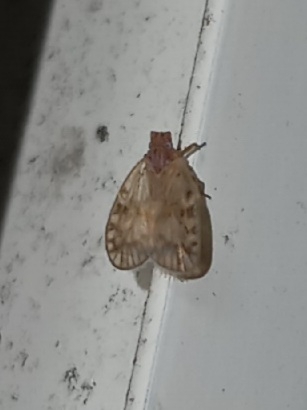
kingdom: Animalia
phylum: Arthropoda
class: Insecta
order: Hemiptera
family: Cixiidae
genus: Bothriocera
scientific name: Bothriocera drakei
